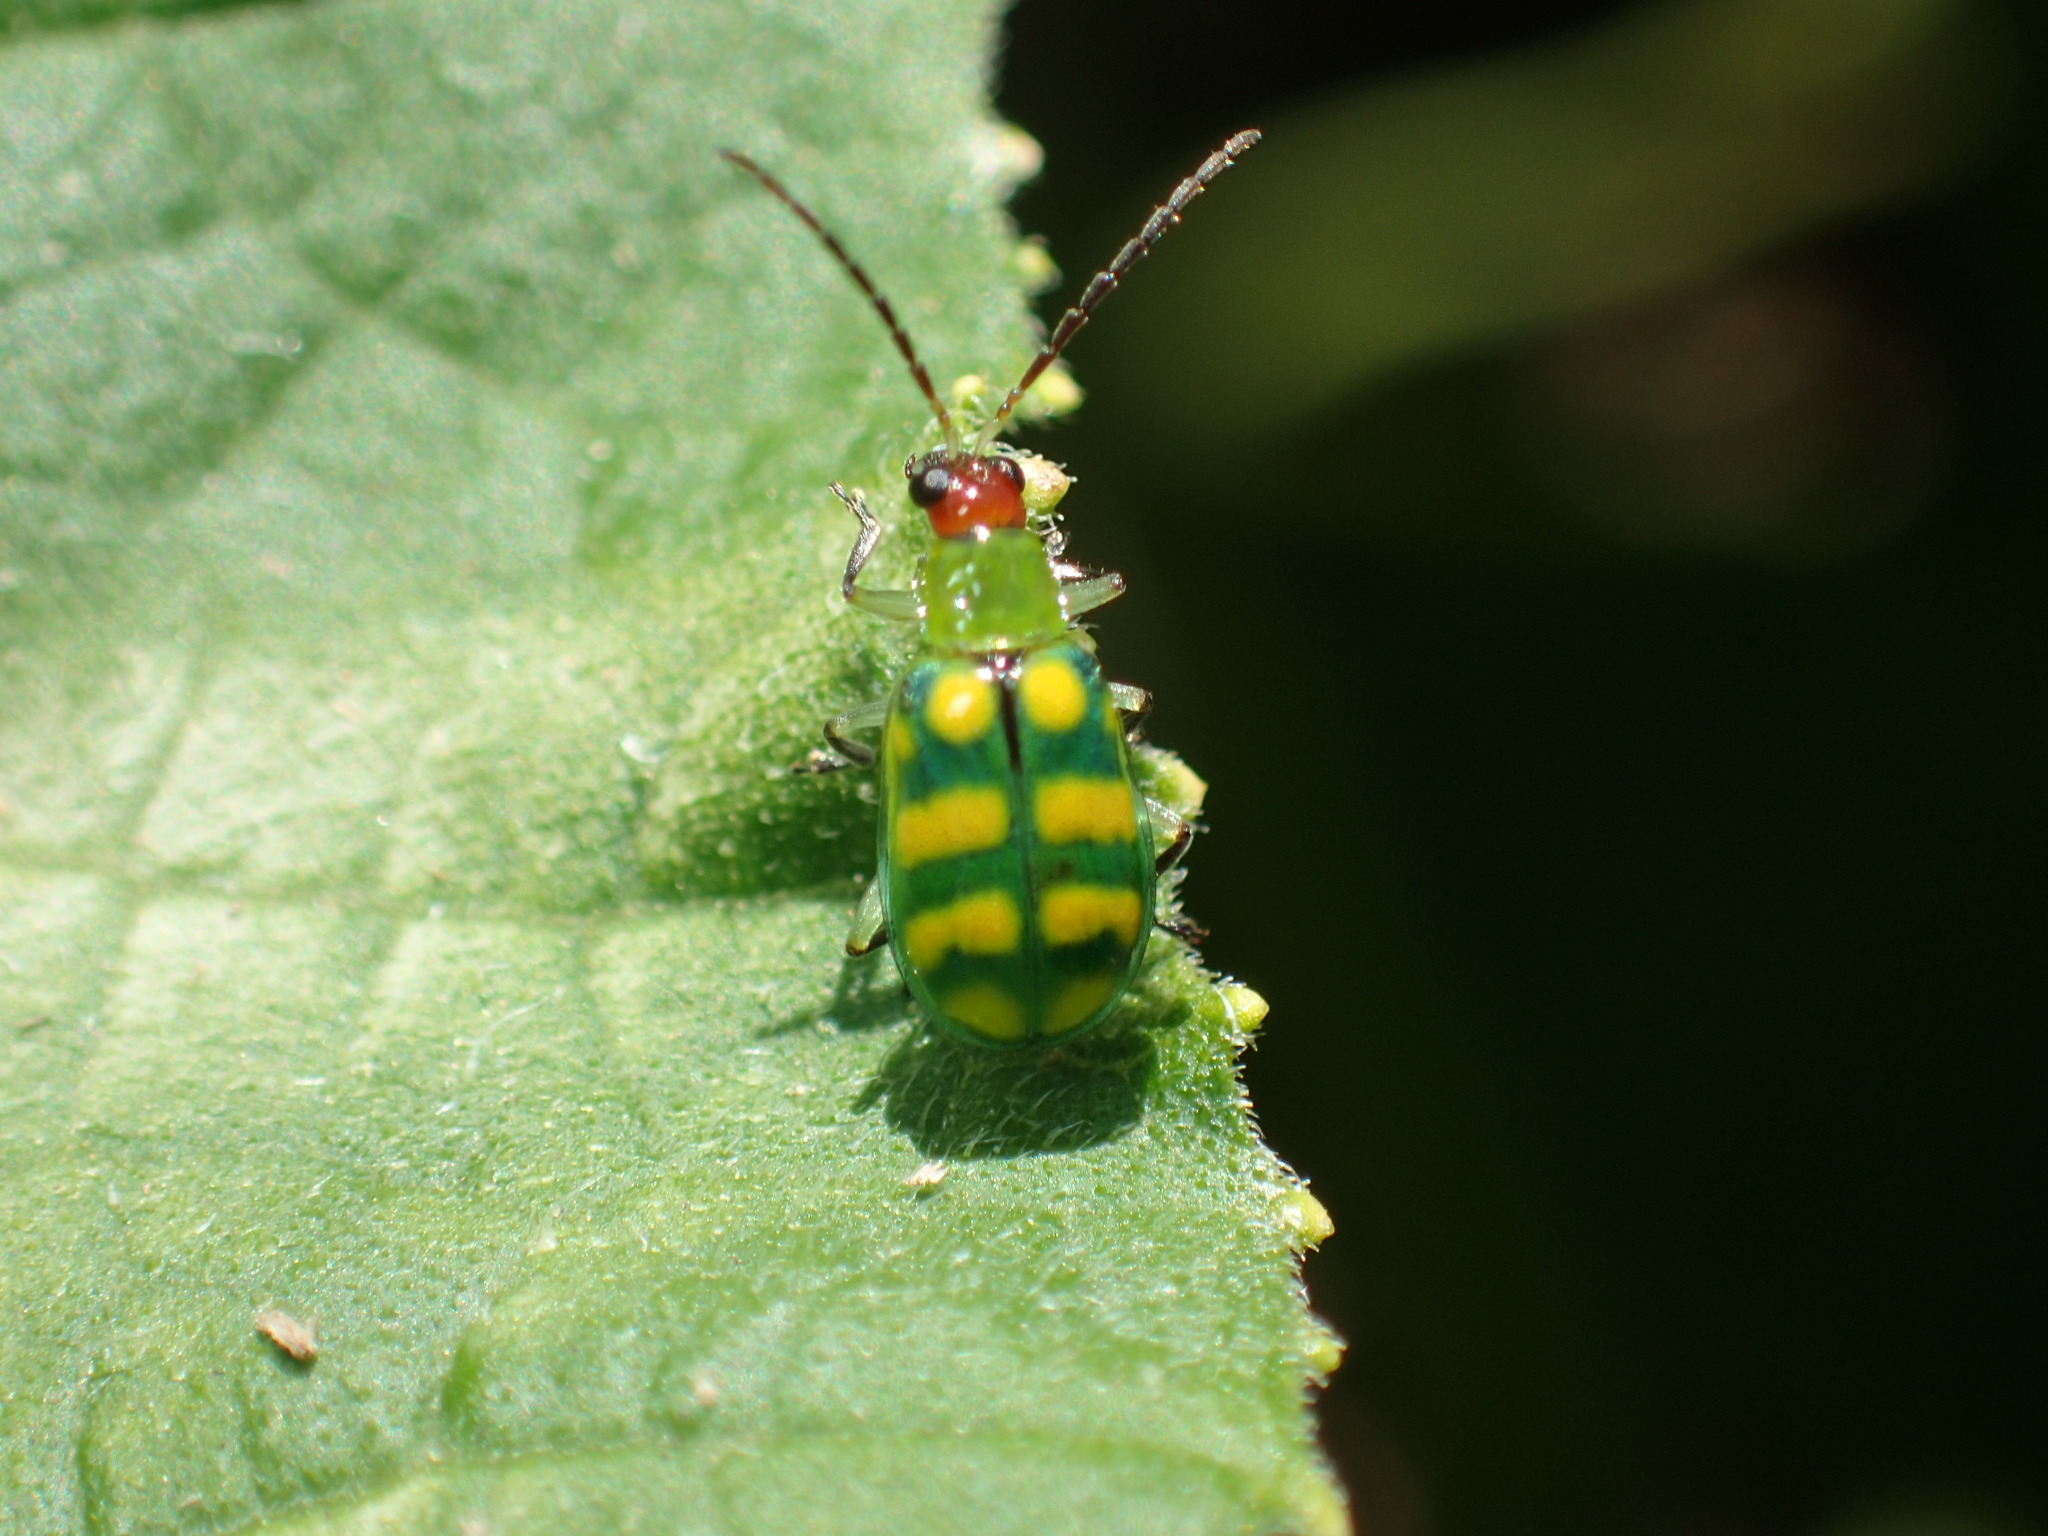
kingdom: Animalia
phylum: Arthropoda
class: Insecta
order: Coleoptera
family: Chrysomelidae
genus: Diabrotica
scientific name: Diabrotica balteata
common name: Leaf beetle
